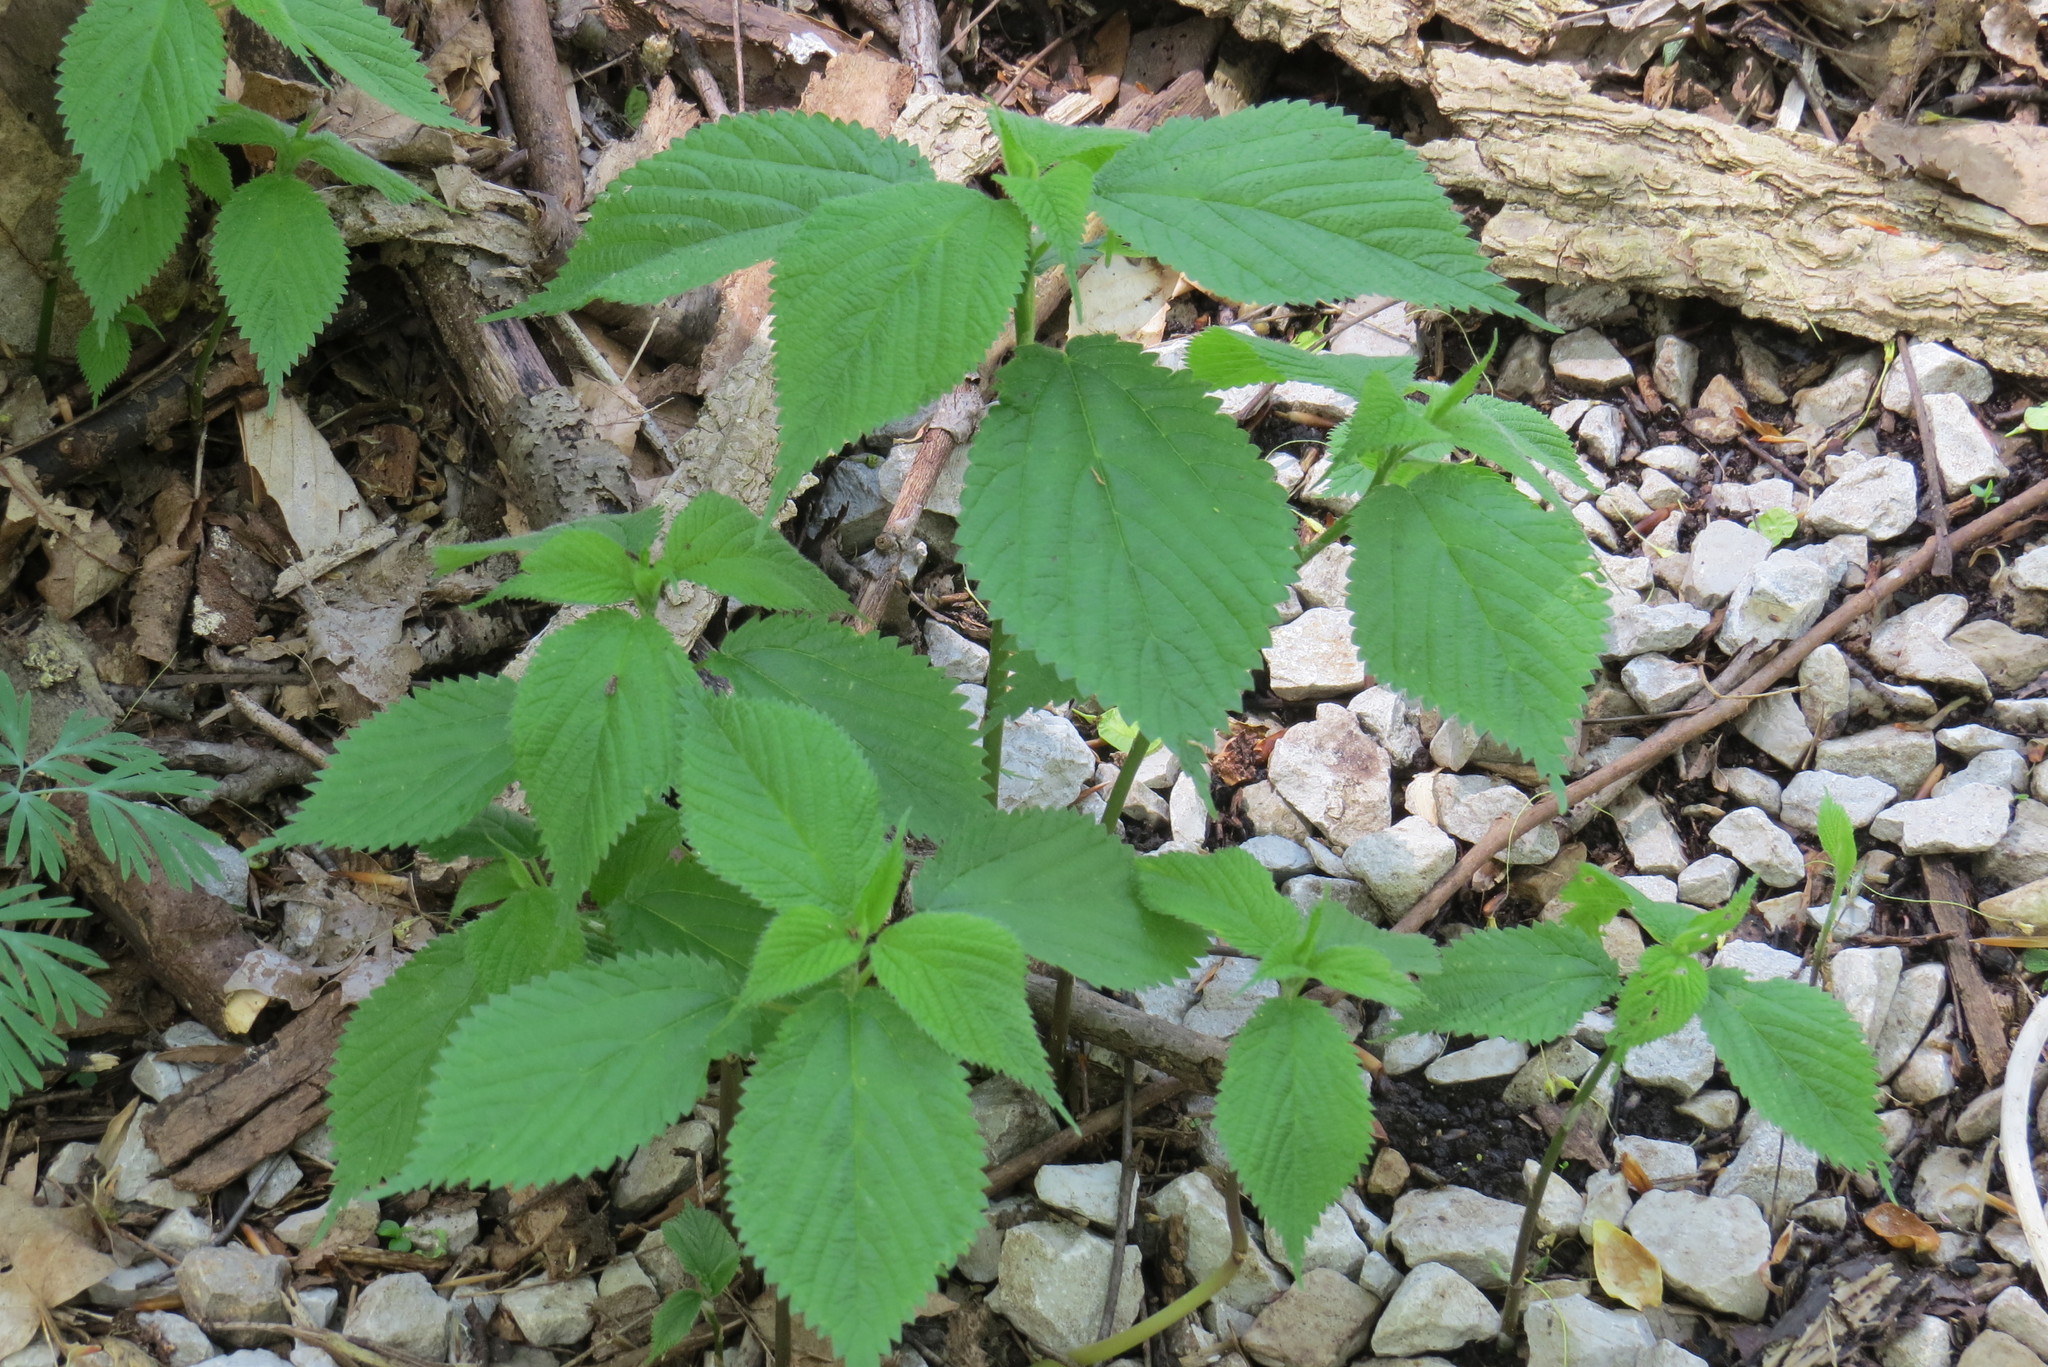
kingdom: Plantae
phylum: Tracheophyta
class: Magnoliopsida
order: Rosales
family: Urticaceae
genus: Laportea
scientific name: Laportea canadensis
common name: Canada nettle
